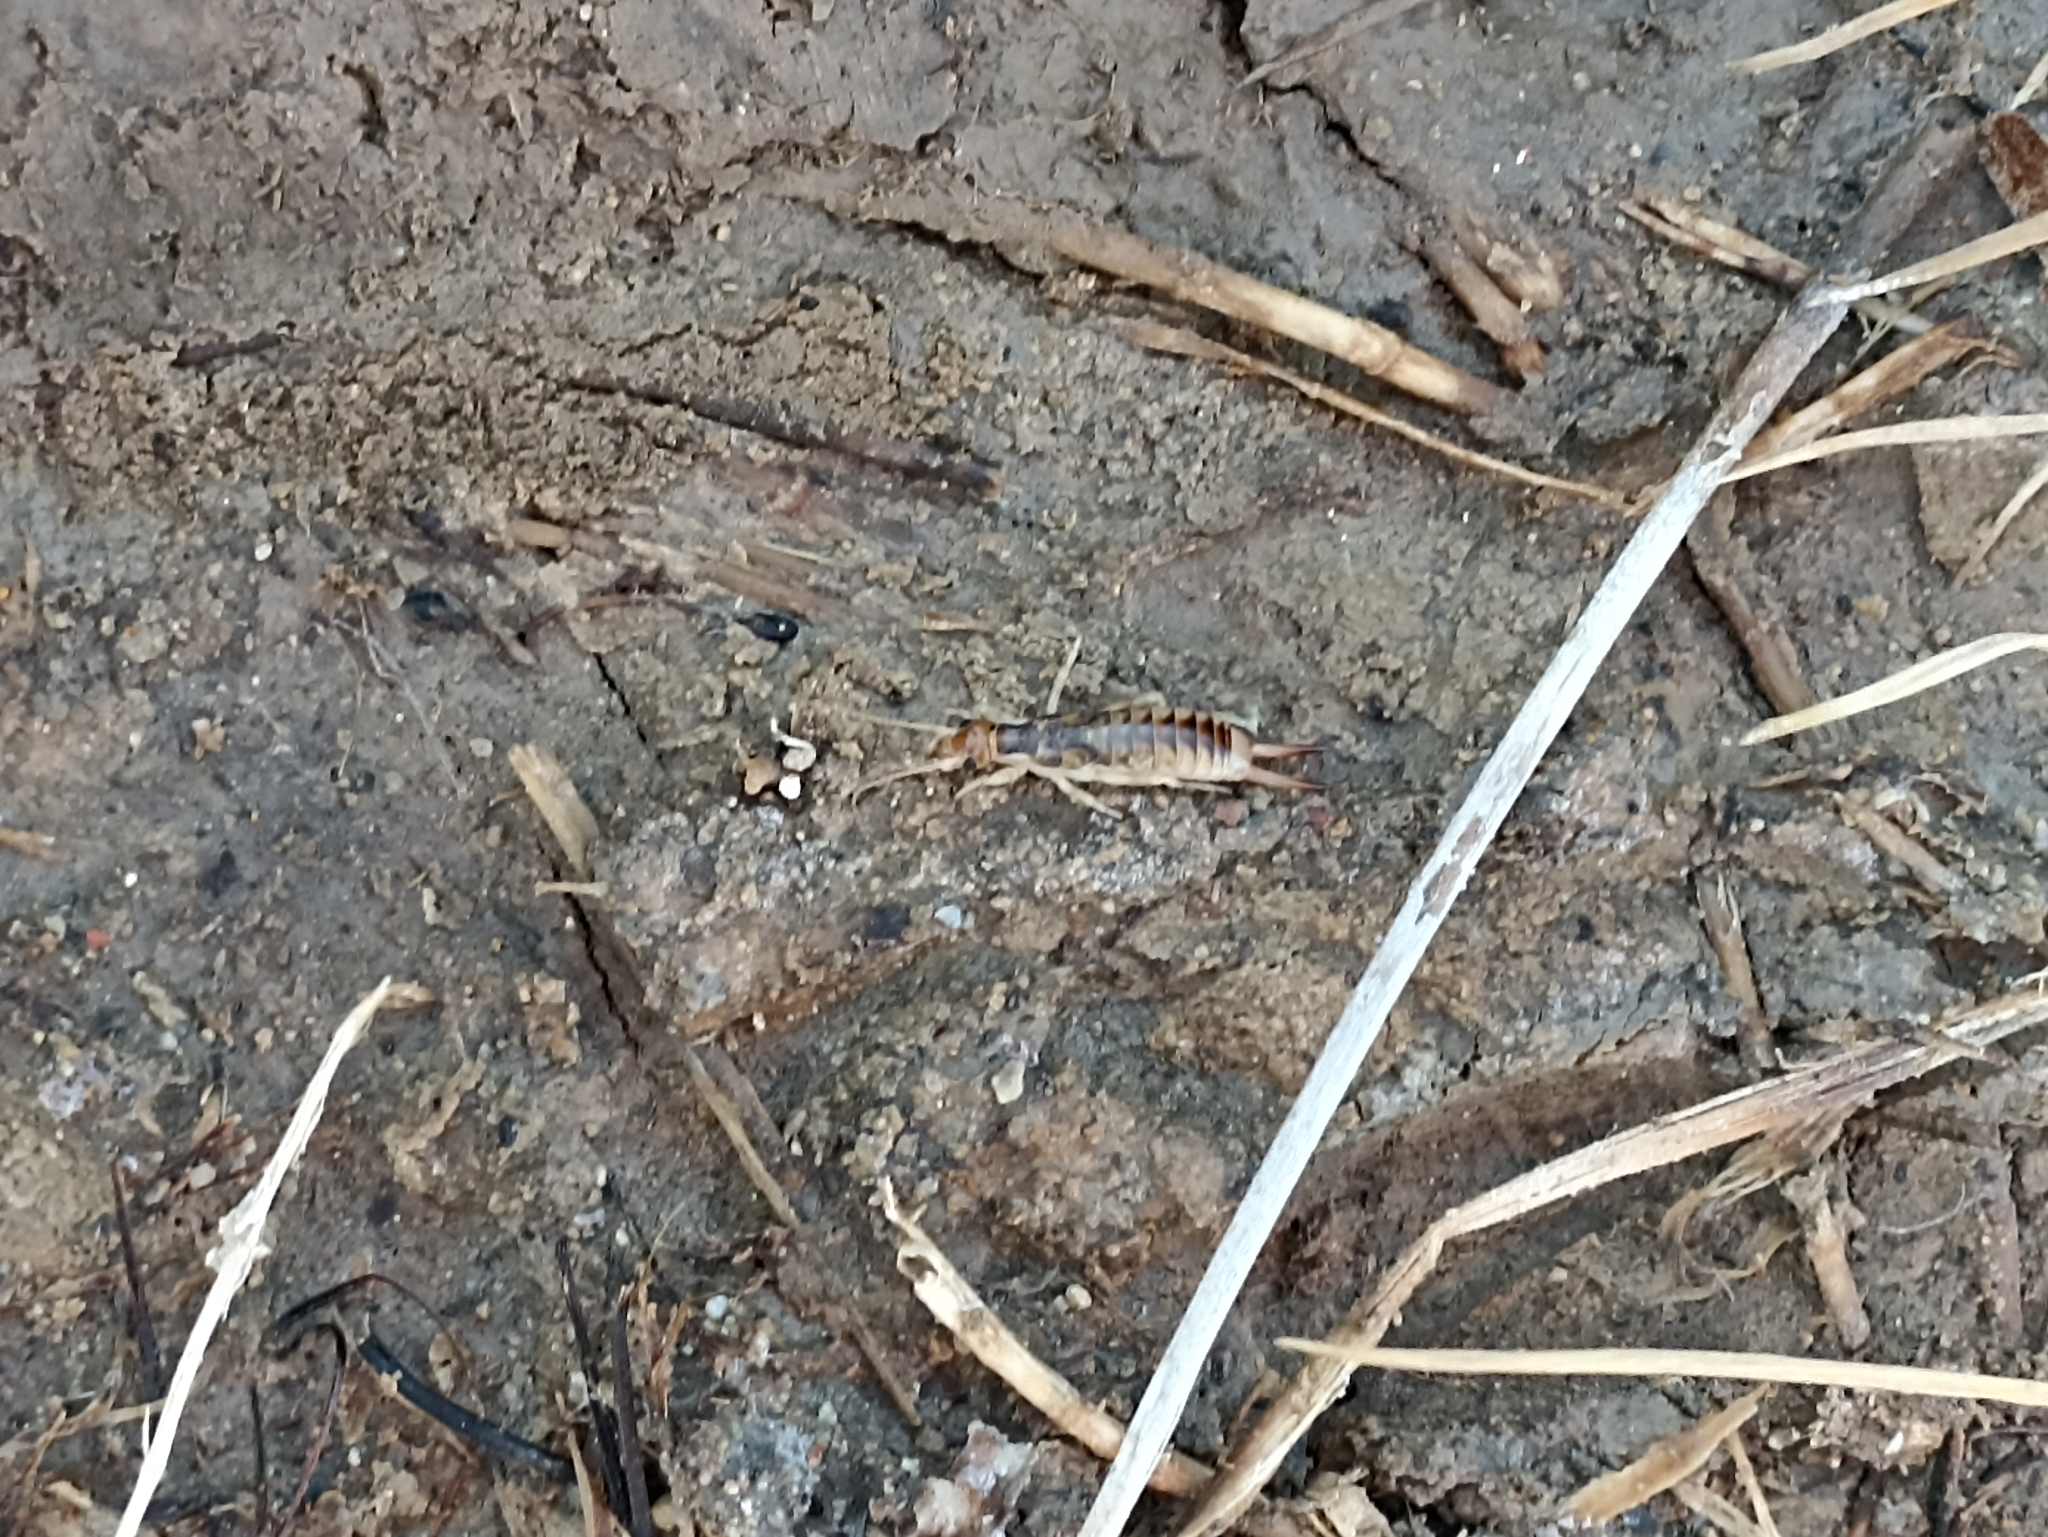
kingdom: Animalia
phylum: Arthropoda
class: Insecta
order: Dermaptera
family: Labiduridae
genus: Labidura
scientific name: Labidura riparia
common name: Striped earwig
